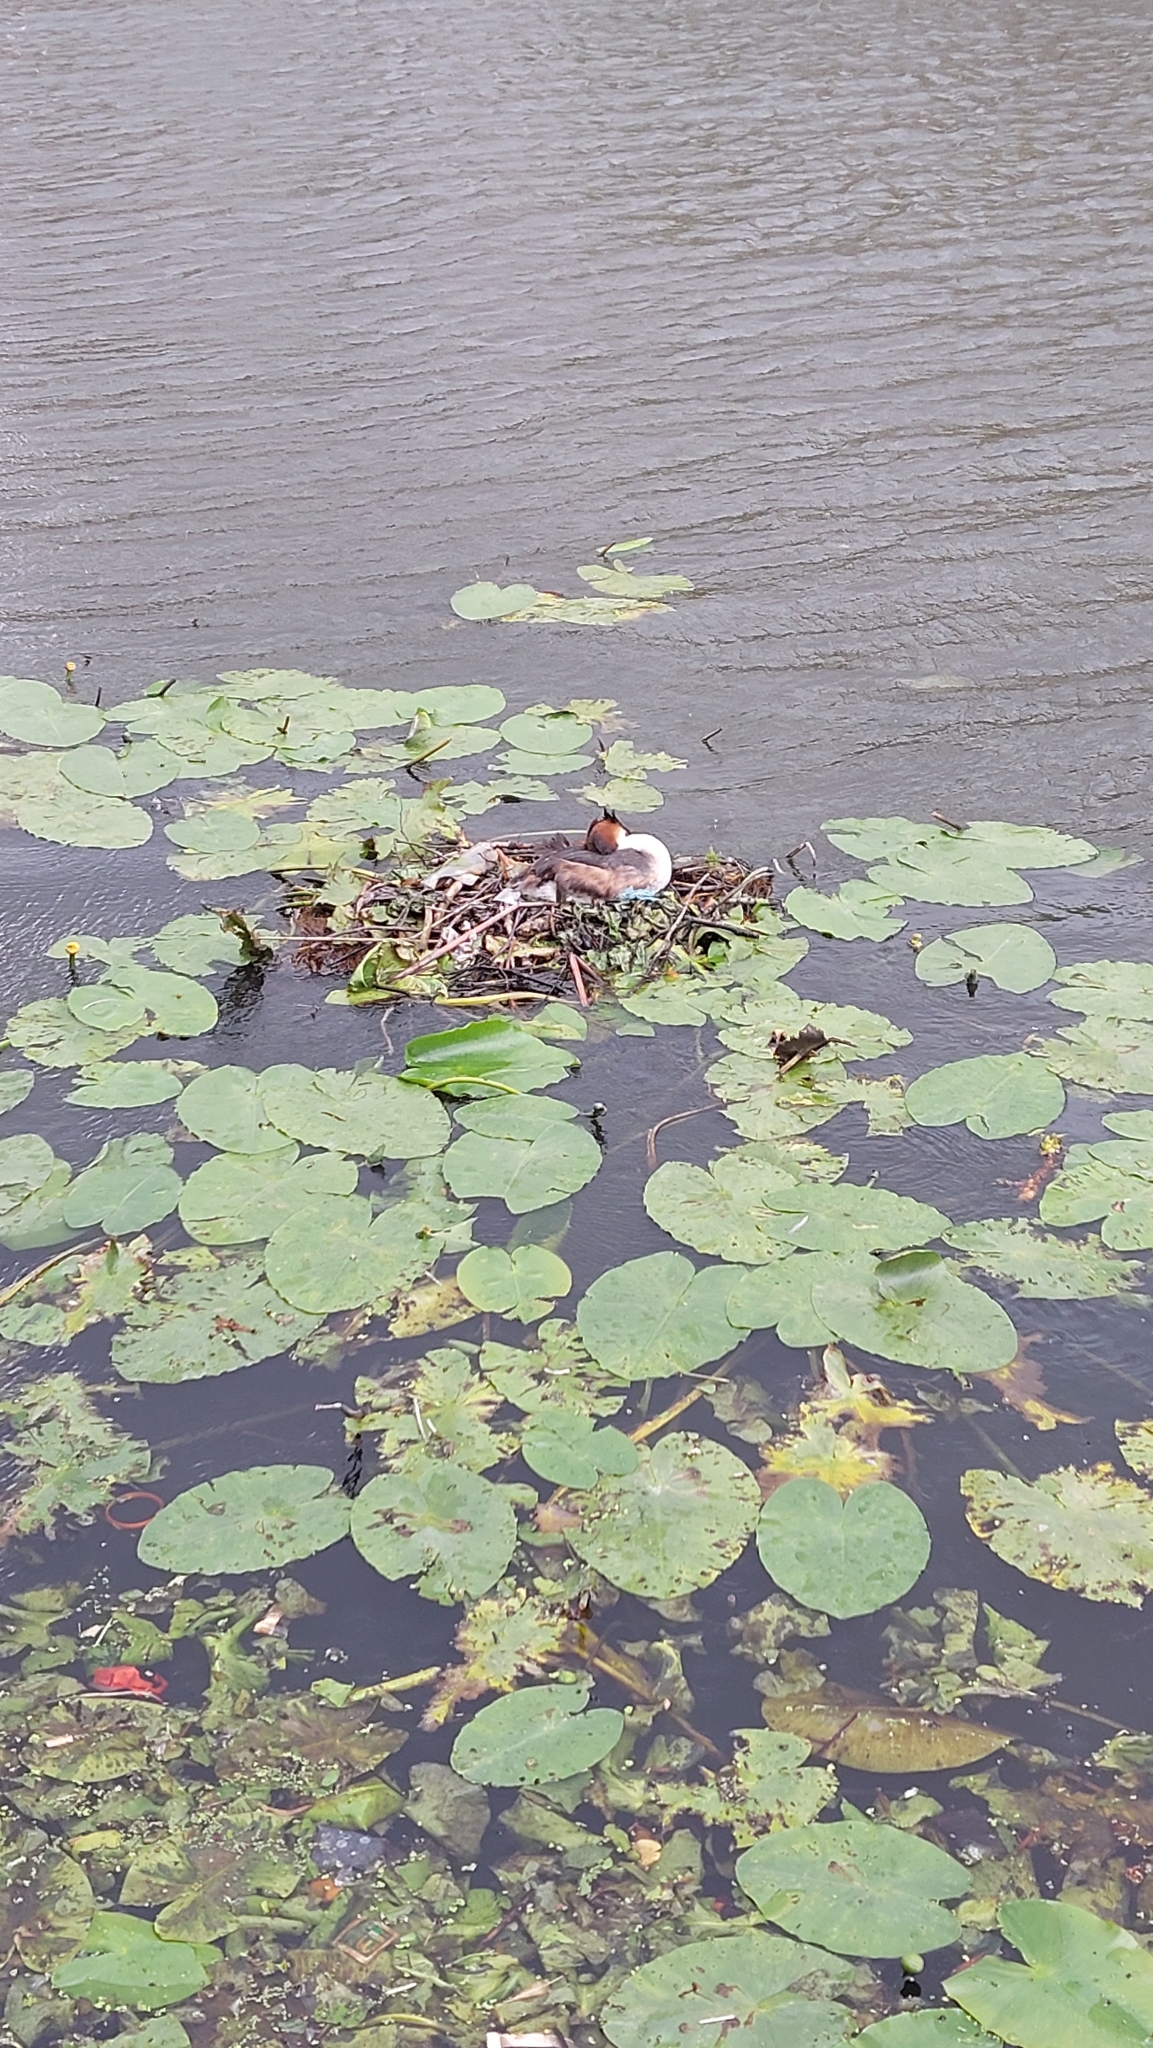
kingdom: Animalia
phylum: Chordata
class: Aves
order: Podicipediformes
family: Podicipedidae
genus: Podiceps
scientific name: Podiceps cristatus
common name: Great crested grebe
